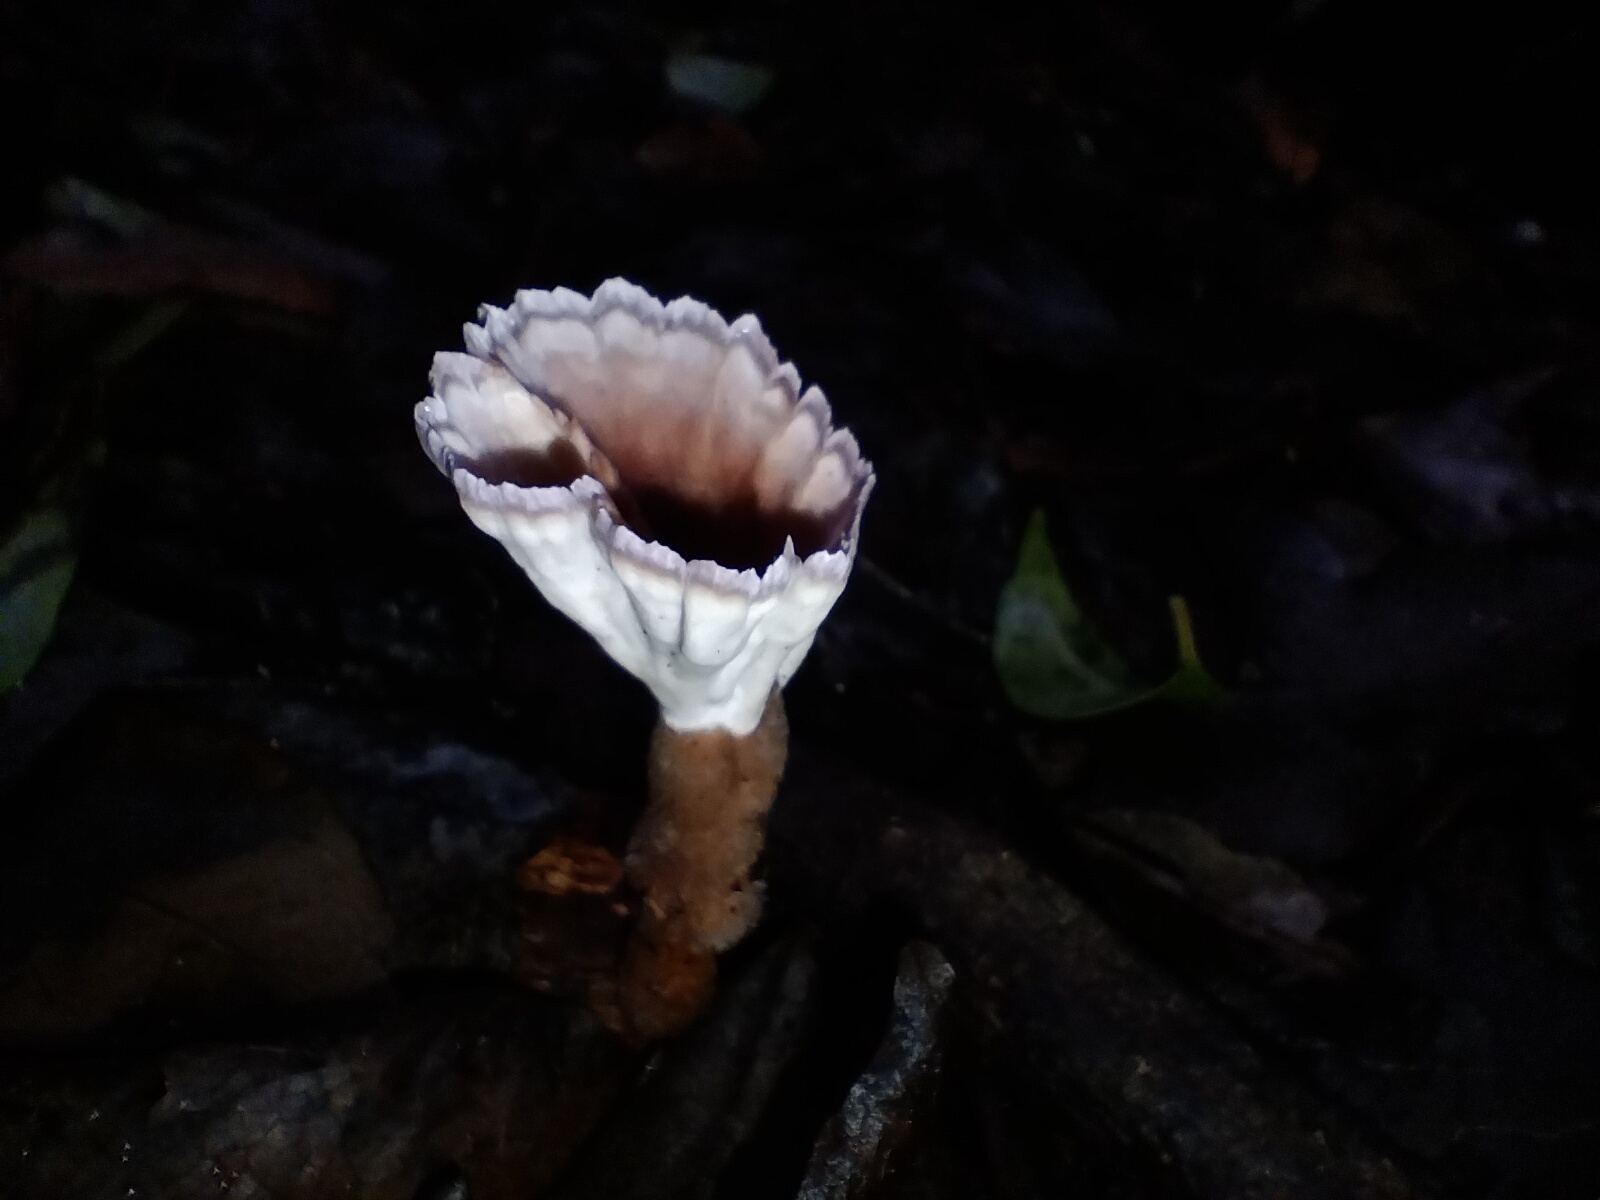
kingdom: Fungi
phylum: Basidiomycota
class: Agaricomycetes
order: Polyporales
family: Panaceae
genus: Cymatoderma
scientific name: Cymatoderma elegans
